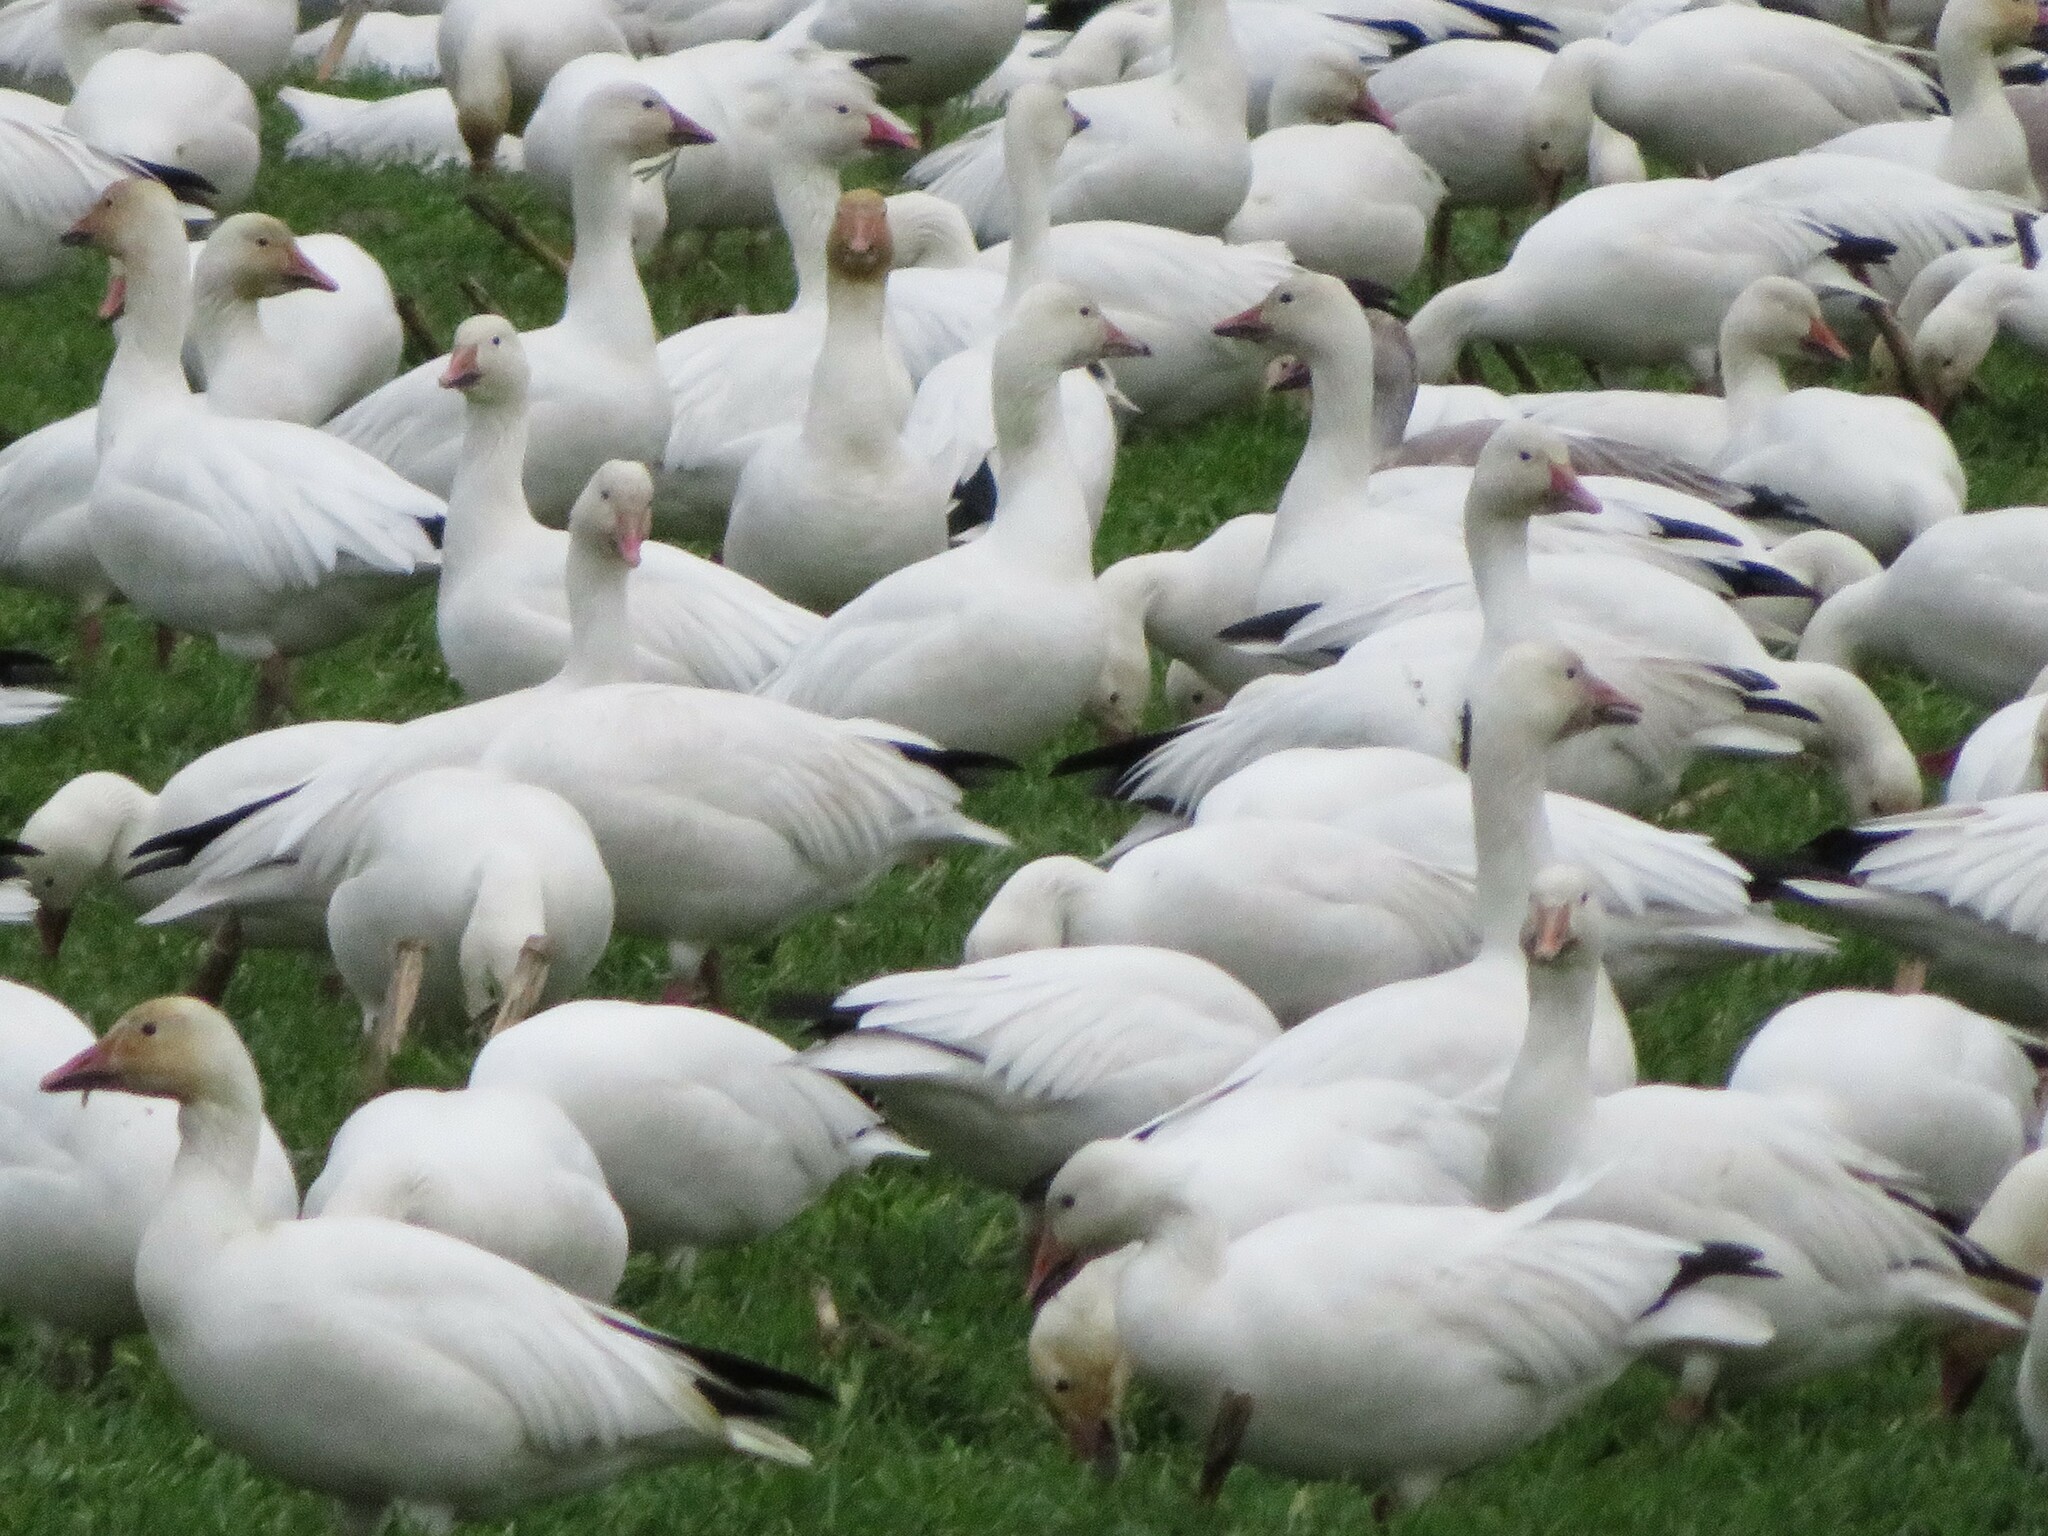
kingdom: Animalia
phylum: Chordata
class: Aves
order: Anseriformes
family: Anatidae
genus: Anser
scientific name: Anser caerulescens
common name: Snow goose
